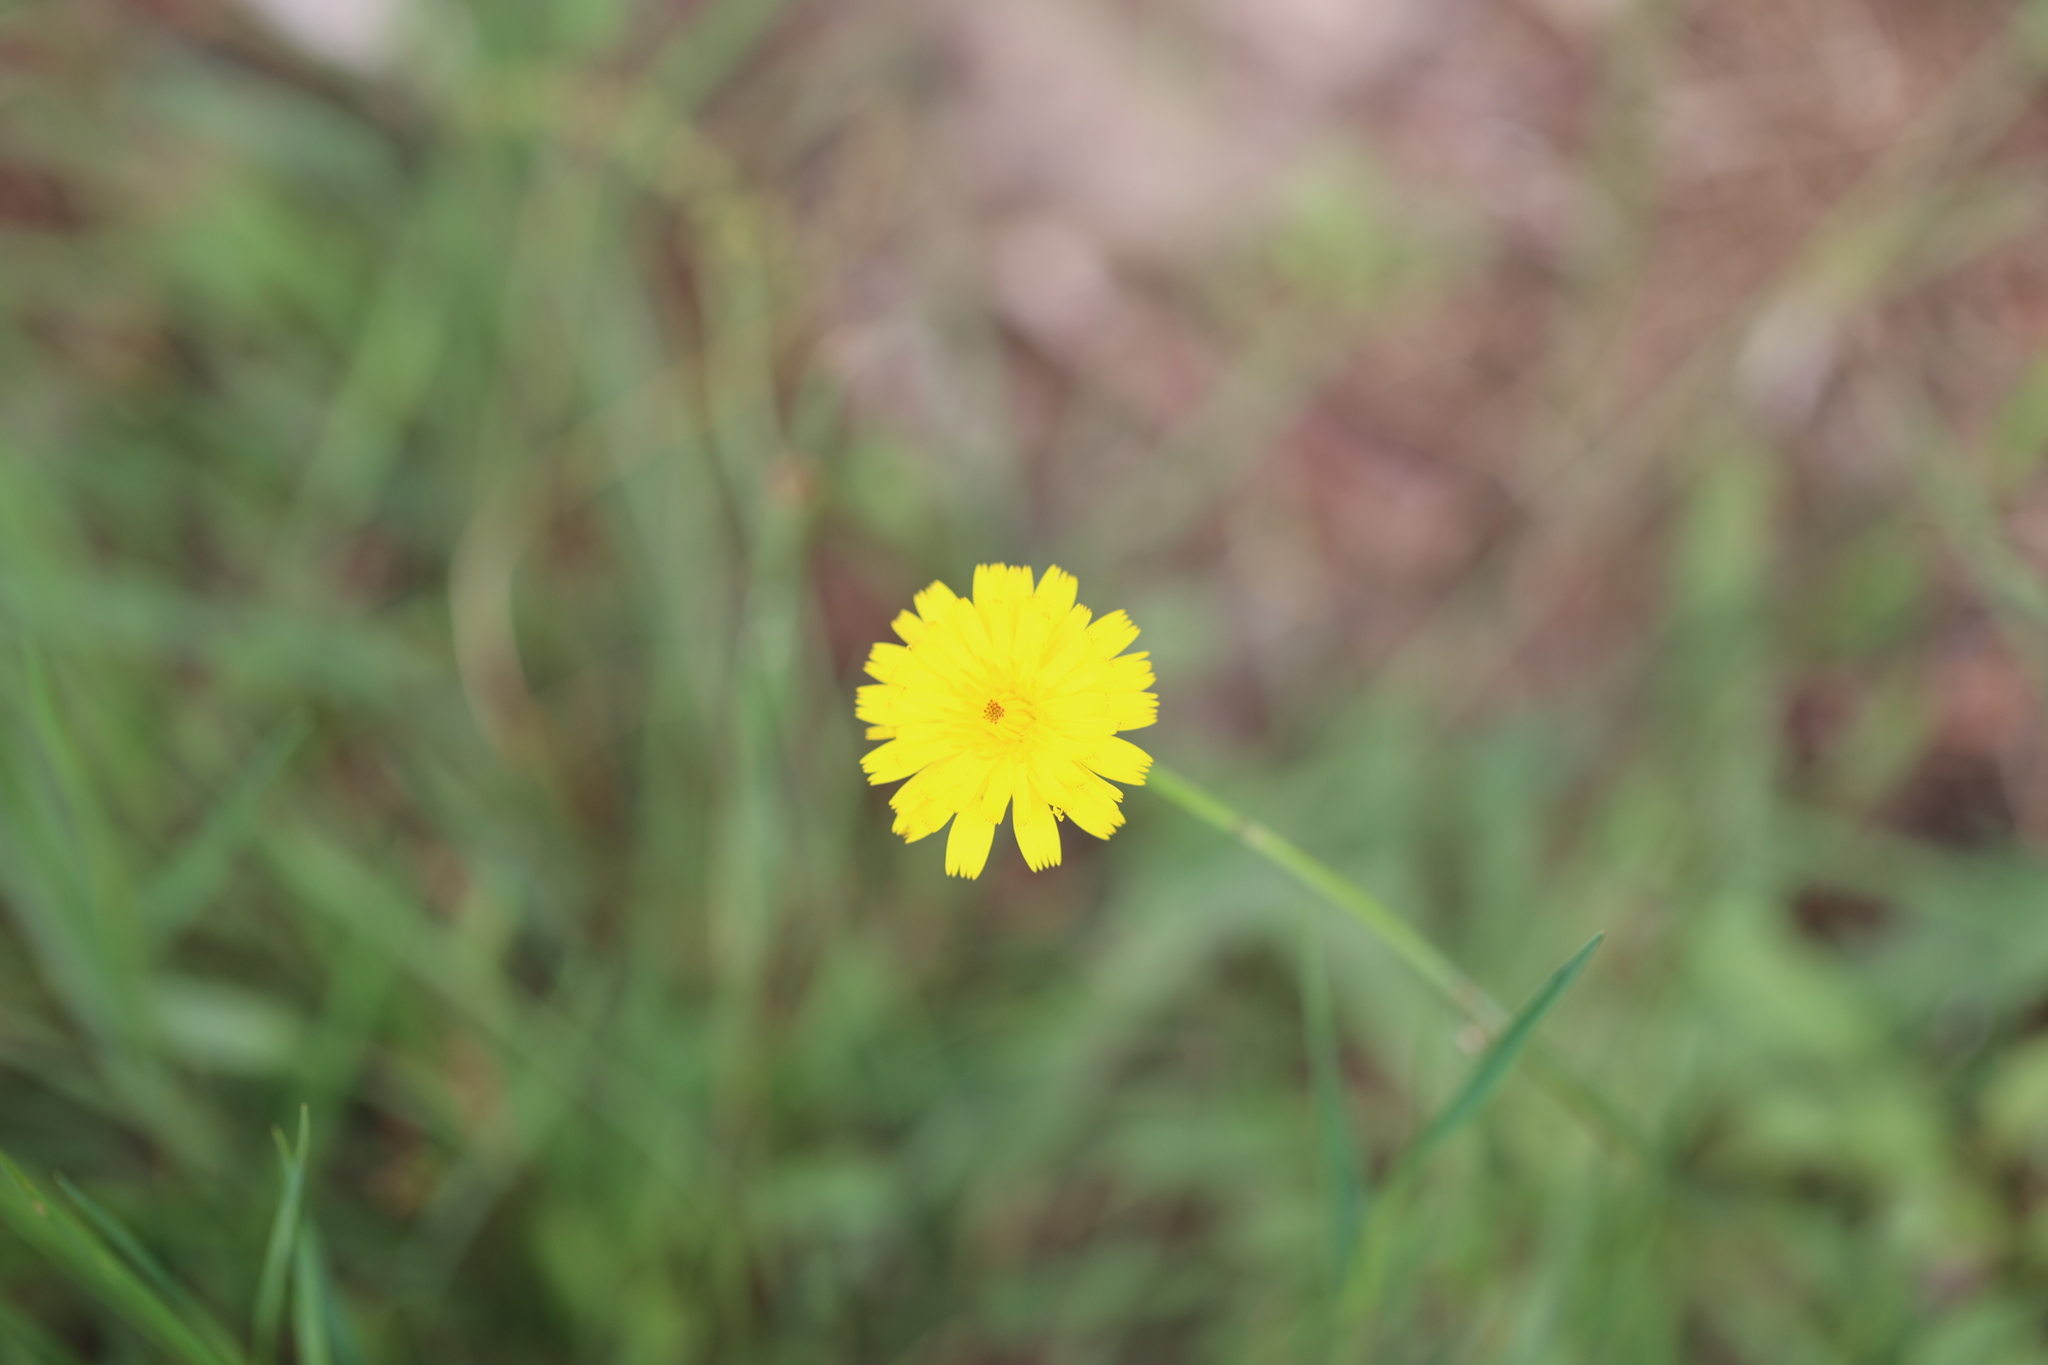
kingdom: Plantae
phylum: Tracheophyta
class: Magnoliopsida
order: Asterales
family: Asteraceae
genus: Hypochaeris
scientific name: Hypochaeris radicata
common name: Flatweed
